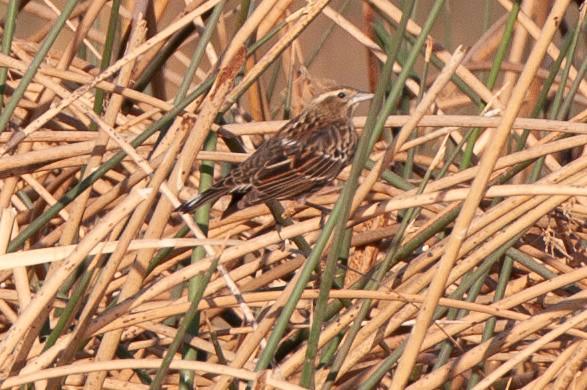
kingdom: Animalia
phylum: Chordata
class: Aves
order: Passeriformes
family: Icteridae
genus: Agelaius
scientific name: Agelaius phoeniceus
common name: Red-winged blackbird
